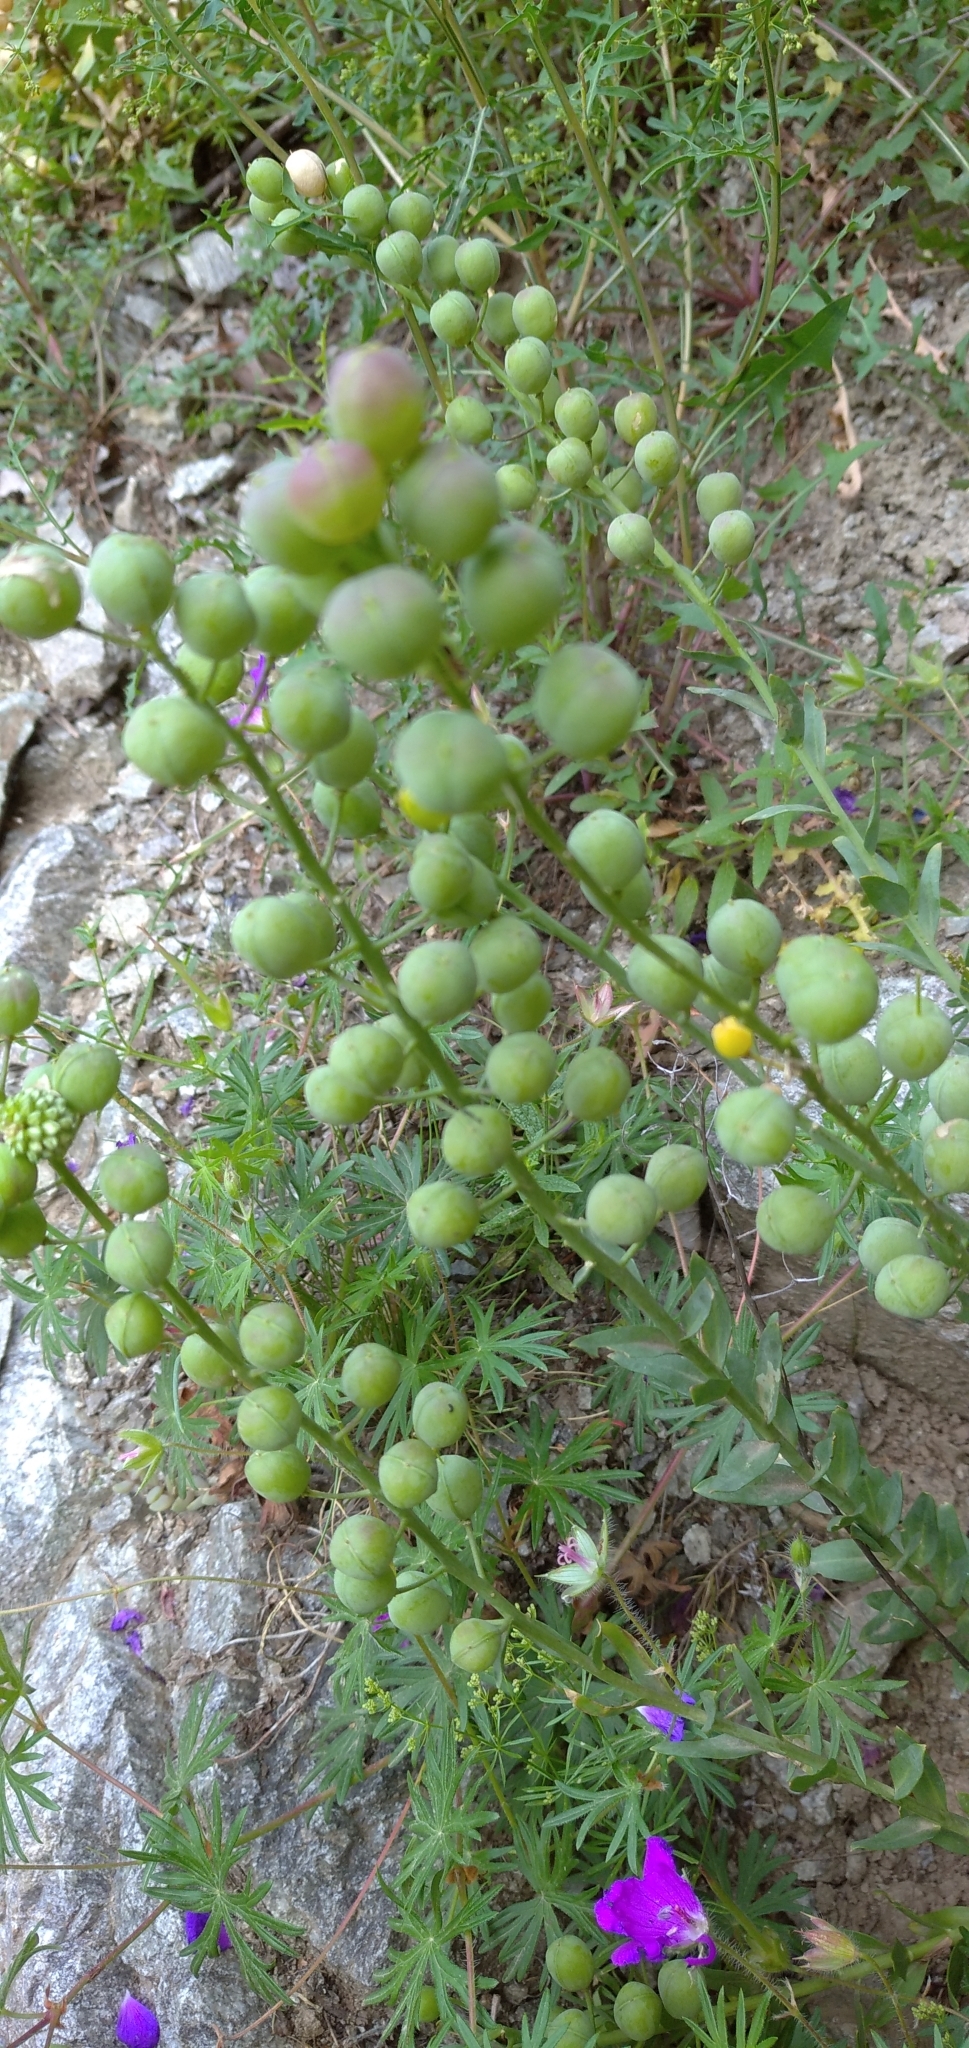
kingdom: Plantae
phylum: Tracheophyta
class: Magnoliopsida
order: Brassicales
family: Brassicaceae
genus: Alyssoides
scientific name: Alyssoides utriculata
